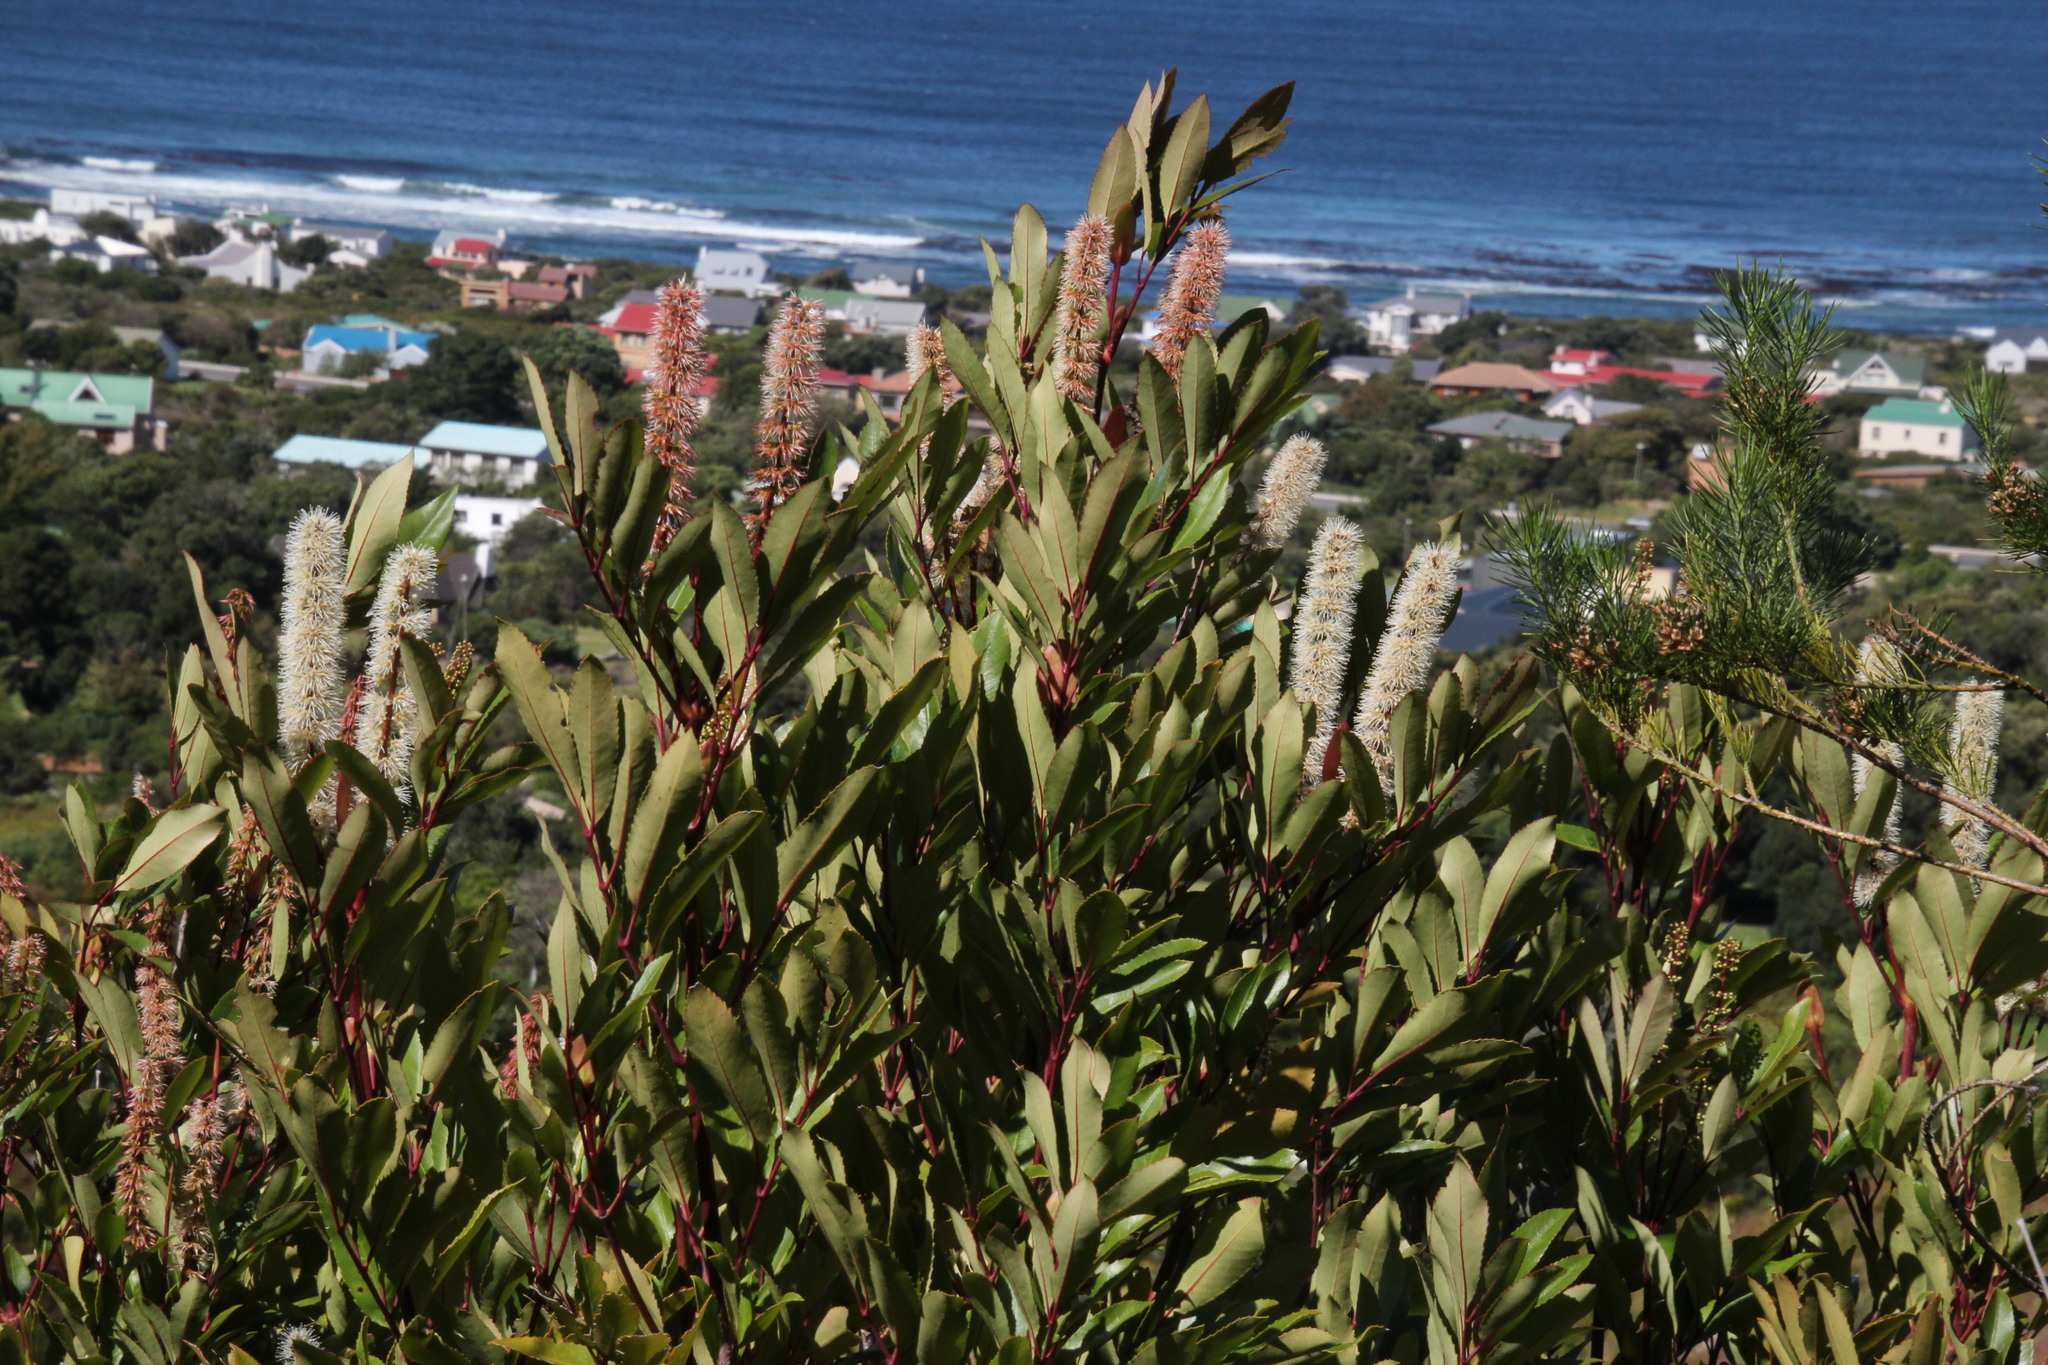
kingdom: Plantae
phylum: Tracheophyta
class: Magnoliopsida
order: Oxalidales
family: Cunoniaceae
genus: Cunonia
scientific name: Cunonia capensis
